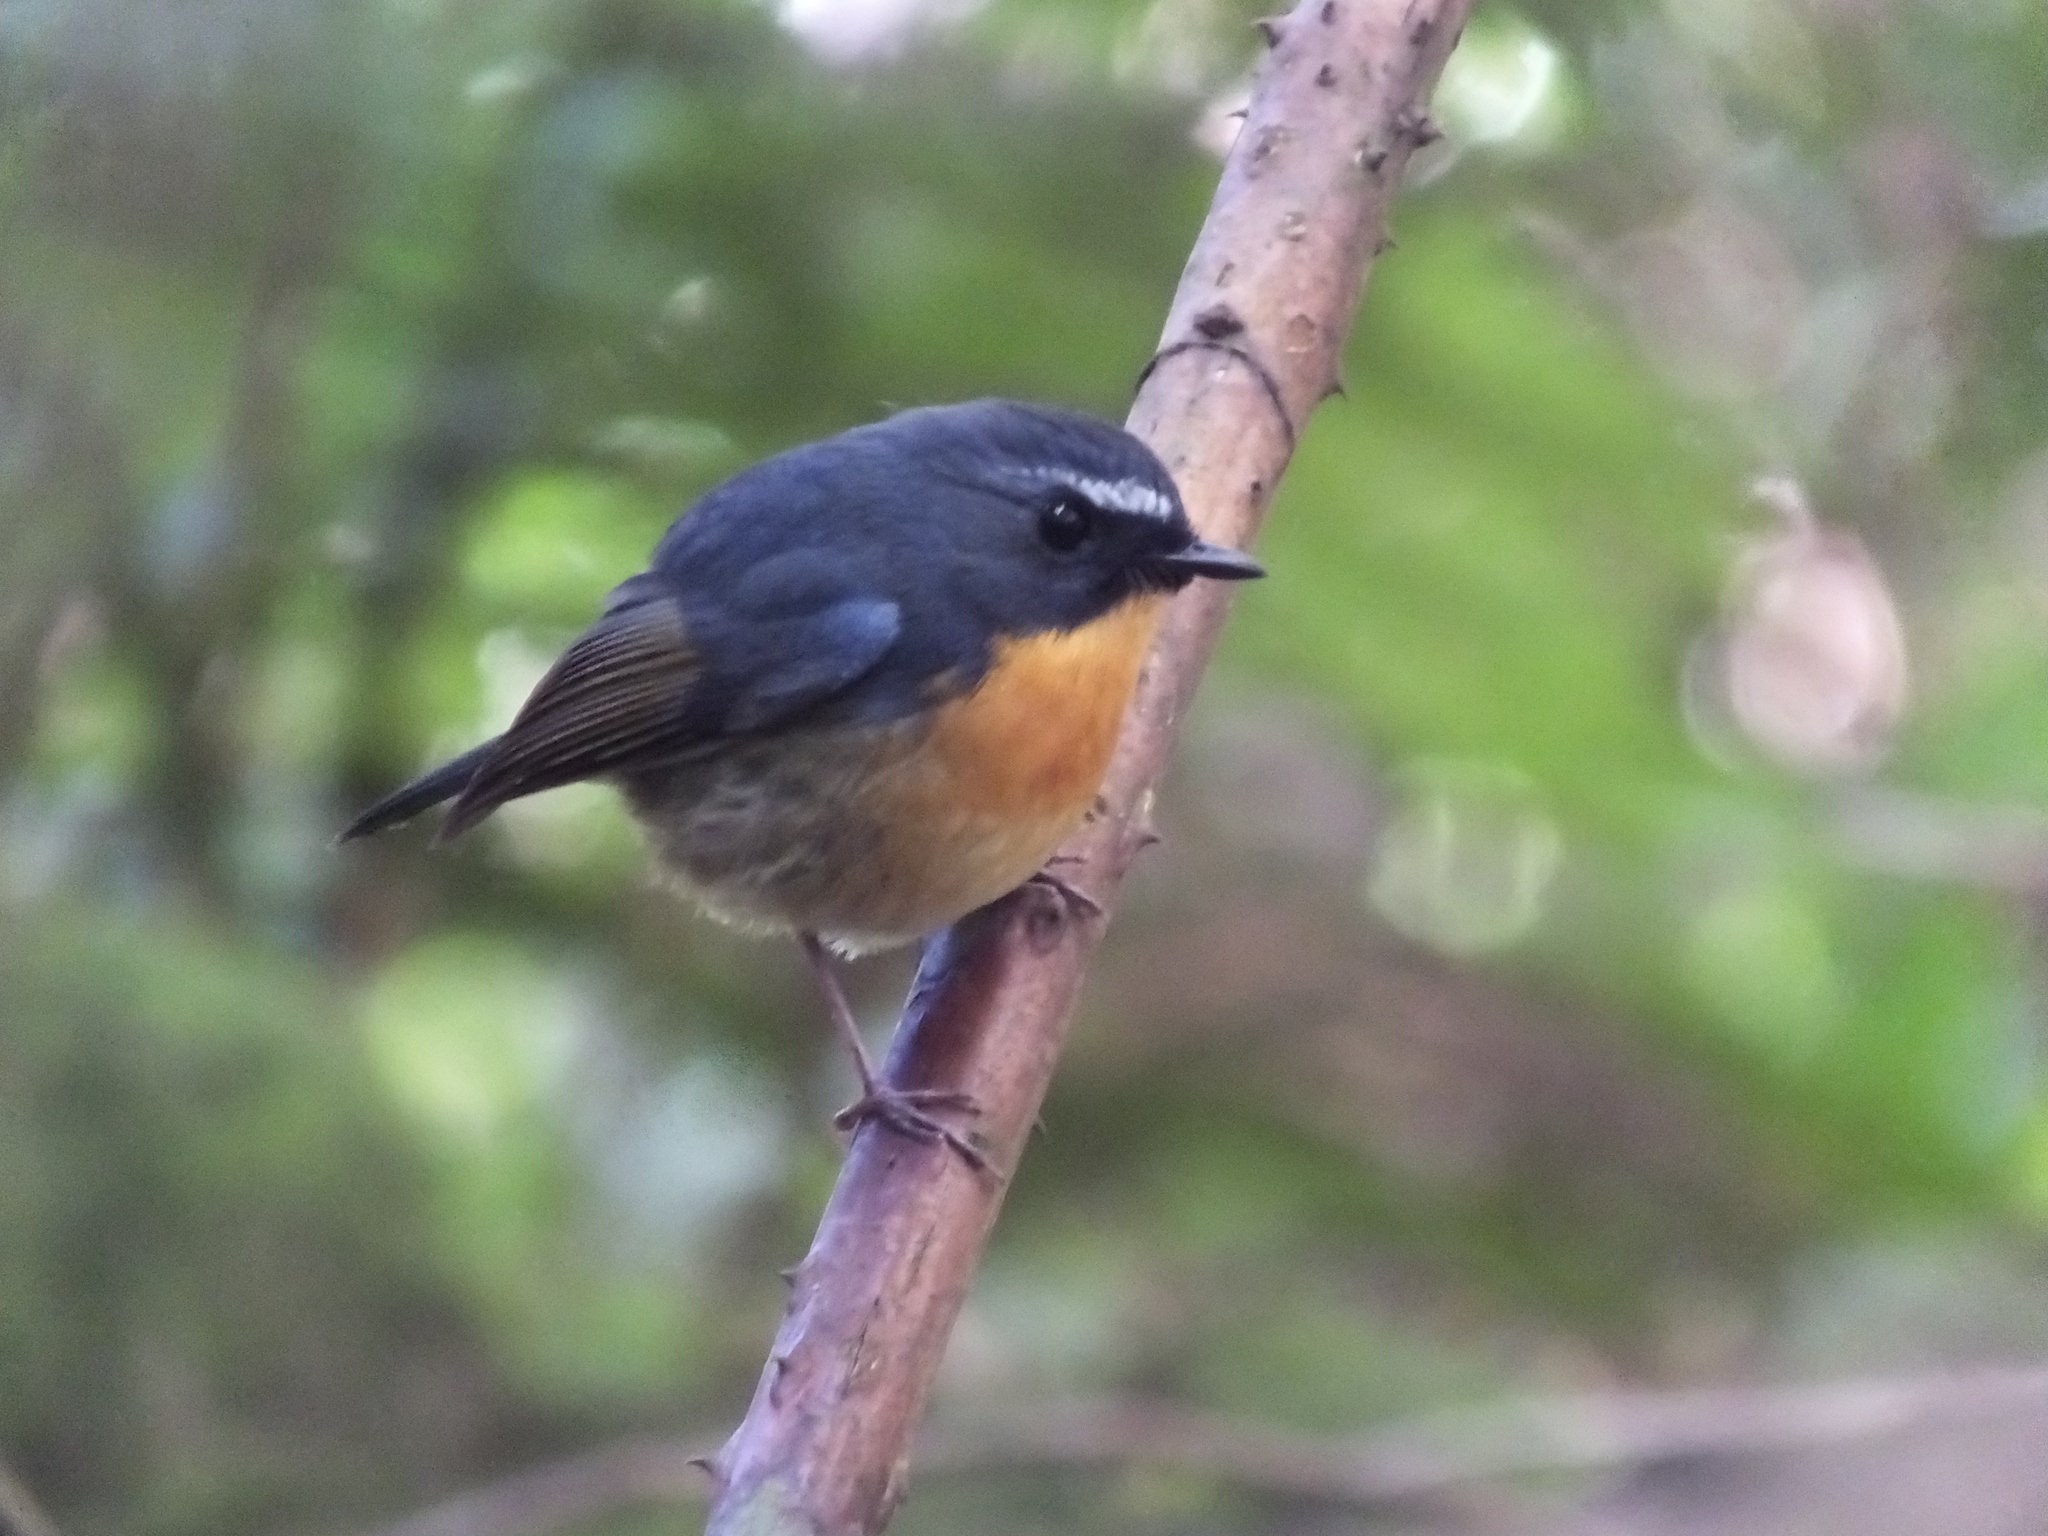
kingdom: Animalia
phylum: Chordata
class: Aves
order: Passeriformes
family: Muscicapidae
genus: Ficedula
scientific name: Ficedula hyperythra
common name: Snowy-browed flycatcher
